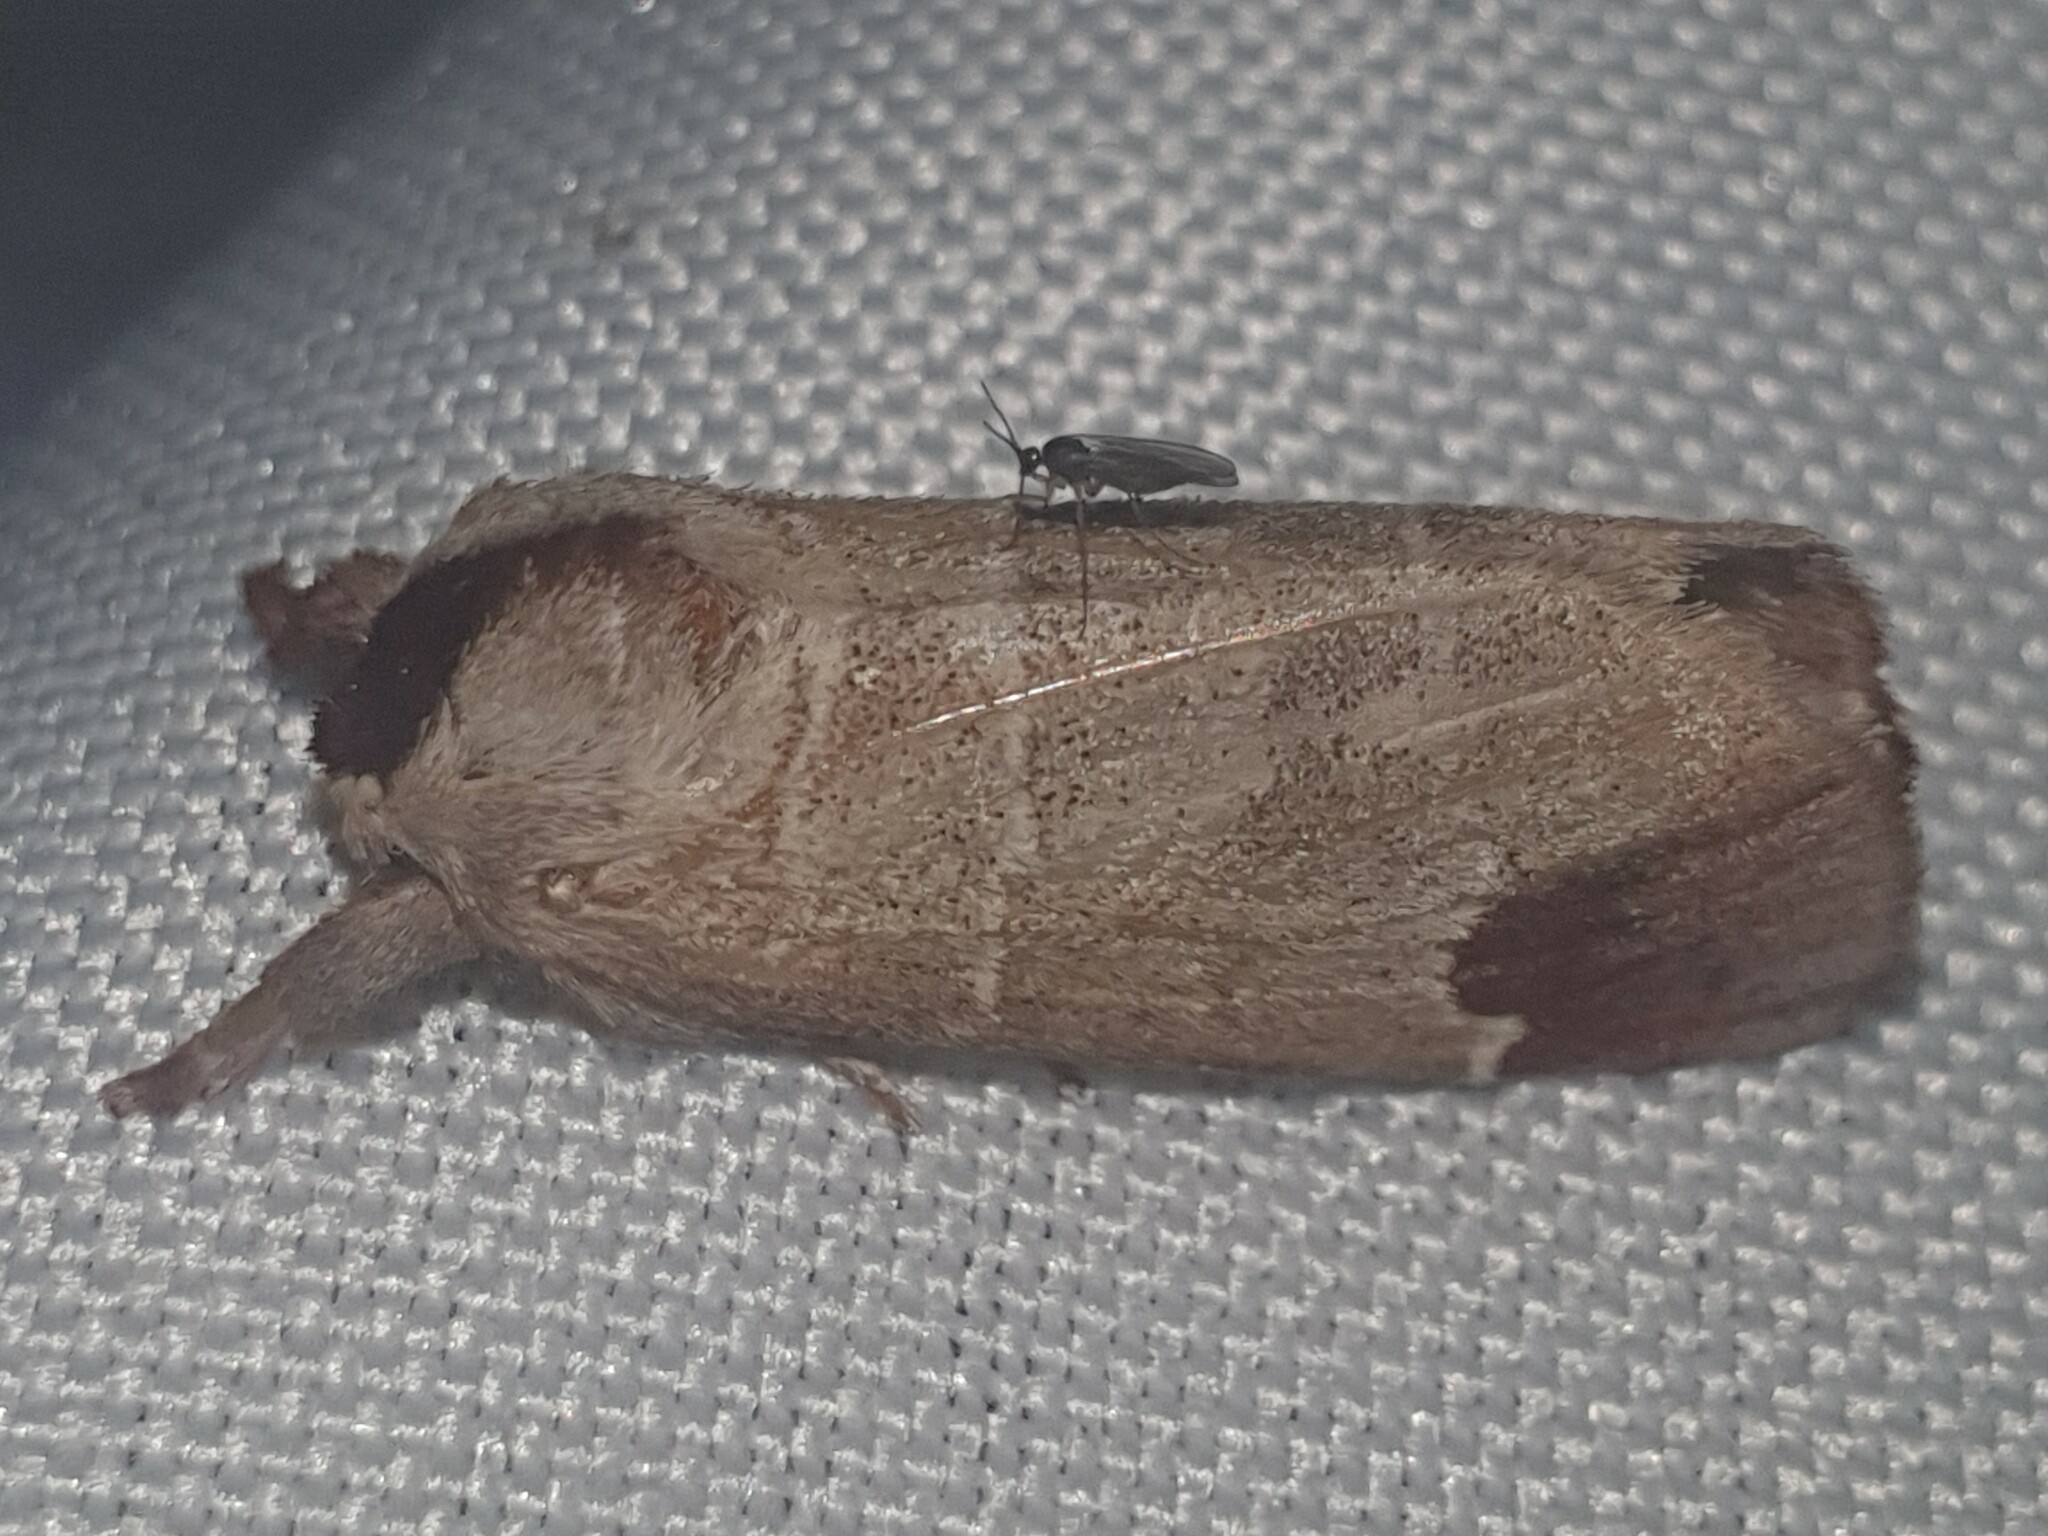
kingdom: Animalia
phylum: Arthropoda
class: Insecta
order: Lepidoptera
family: Notodontidae
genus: Clostera
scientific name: Clostera curtula
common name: Chocolate-tip
